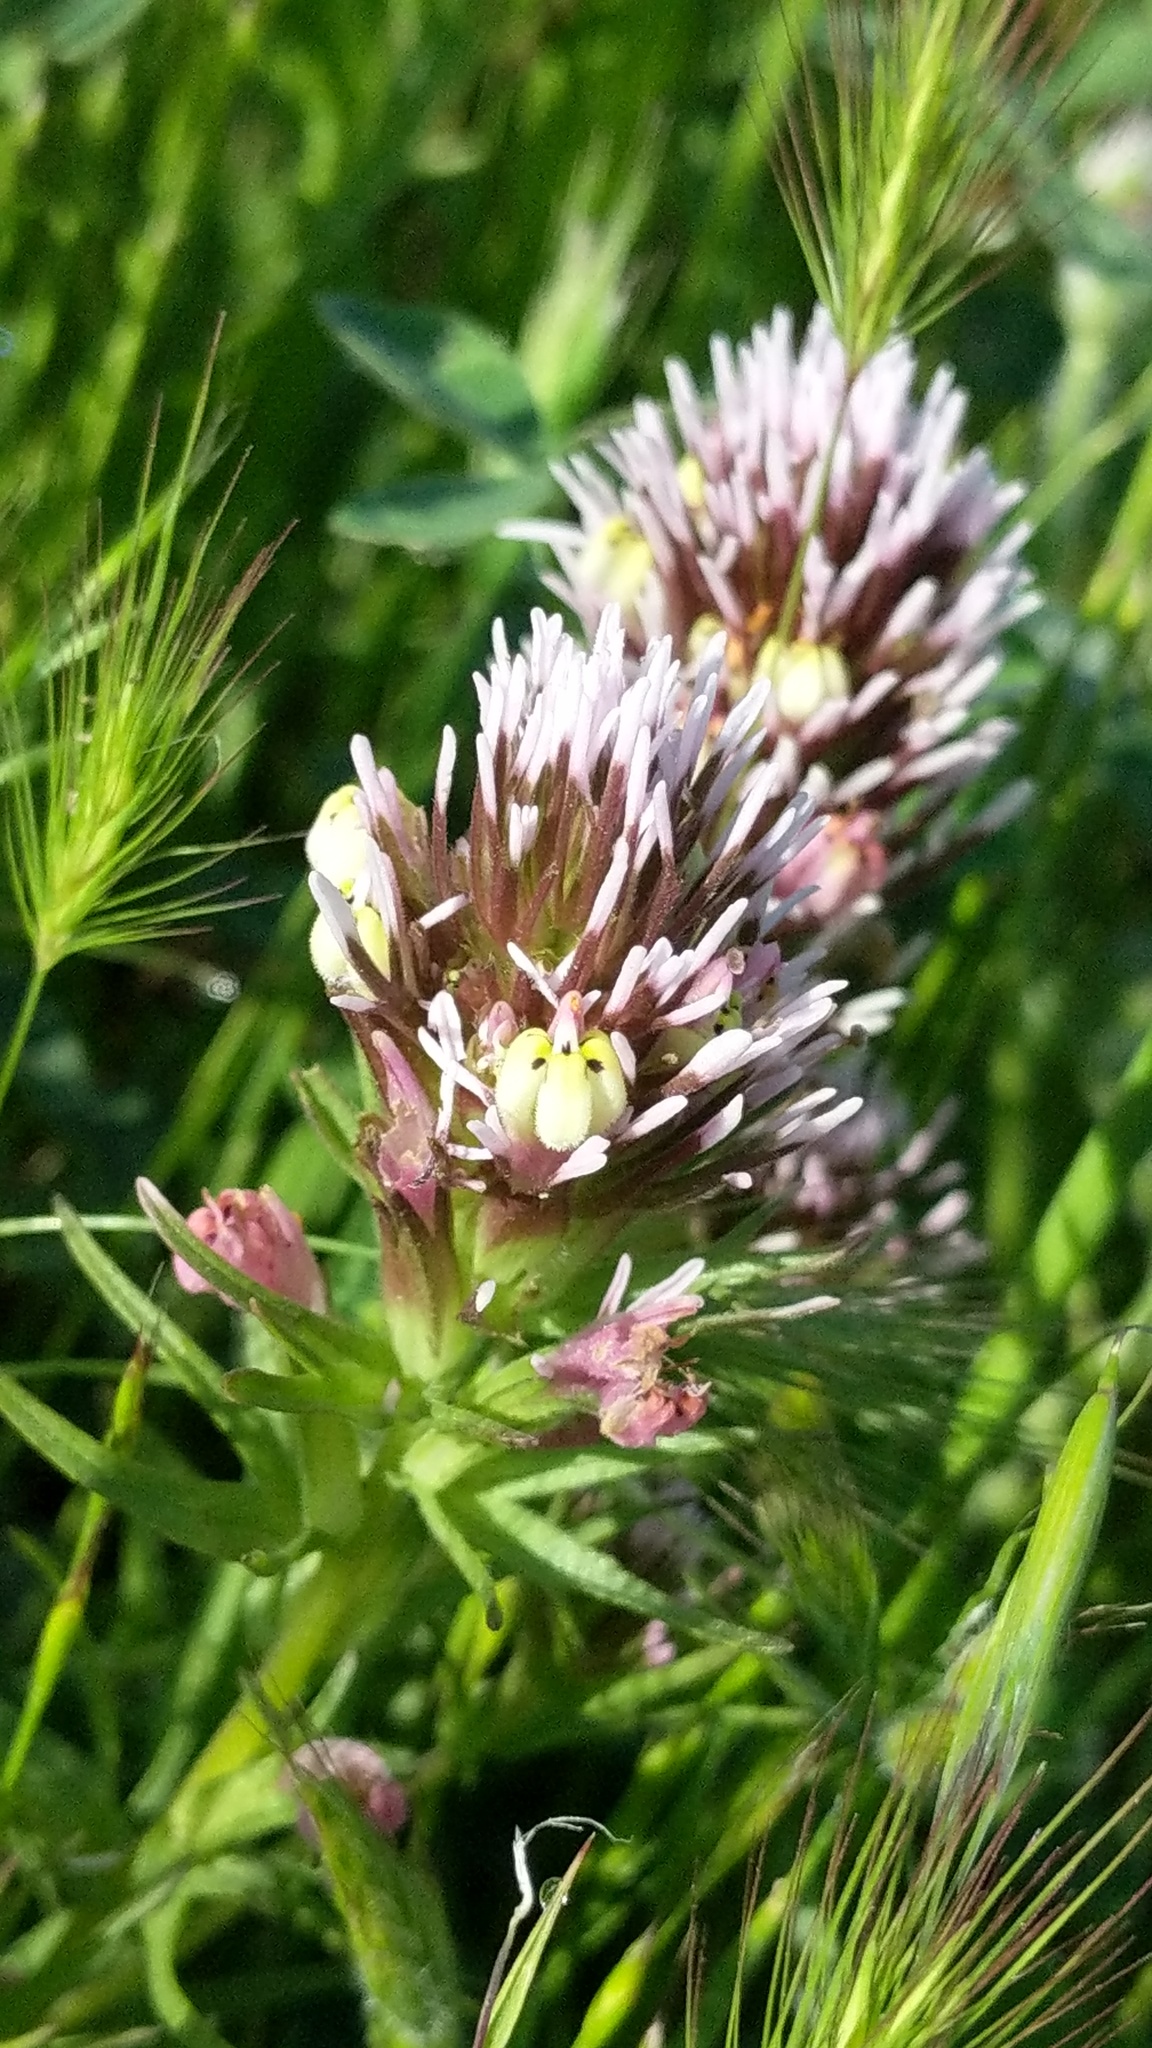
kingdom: Plantae
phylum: Tracheophyta
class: Magnoliopsida
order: Lamiales
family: Orobanchaceae
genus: Castilleja
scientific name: Castilleja densiflora
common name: Dense-flower indian paintbrush
